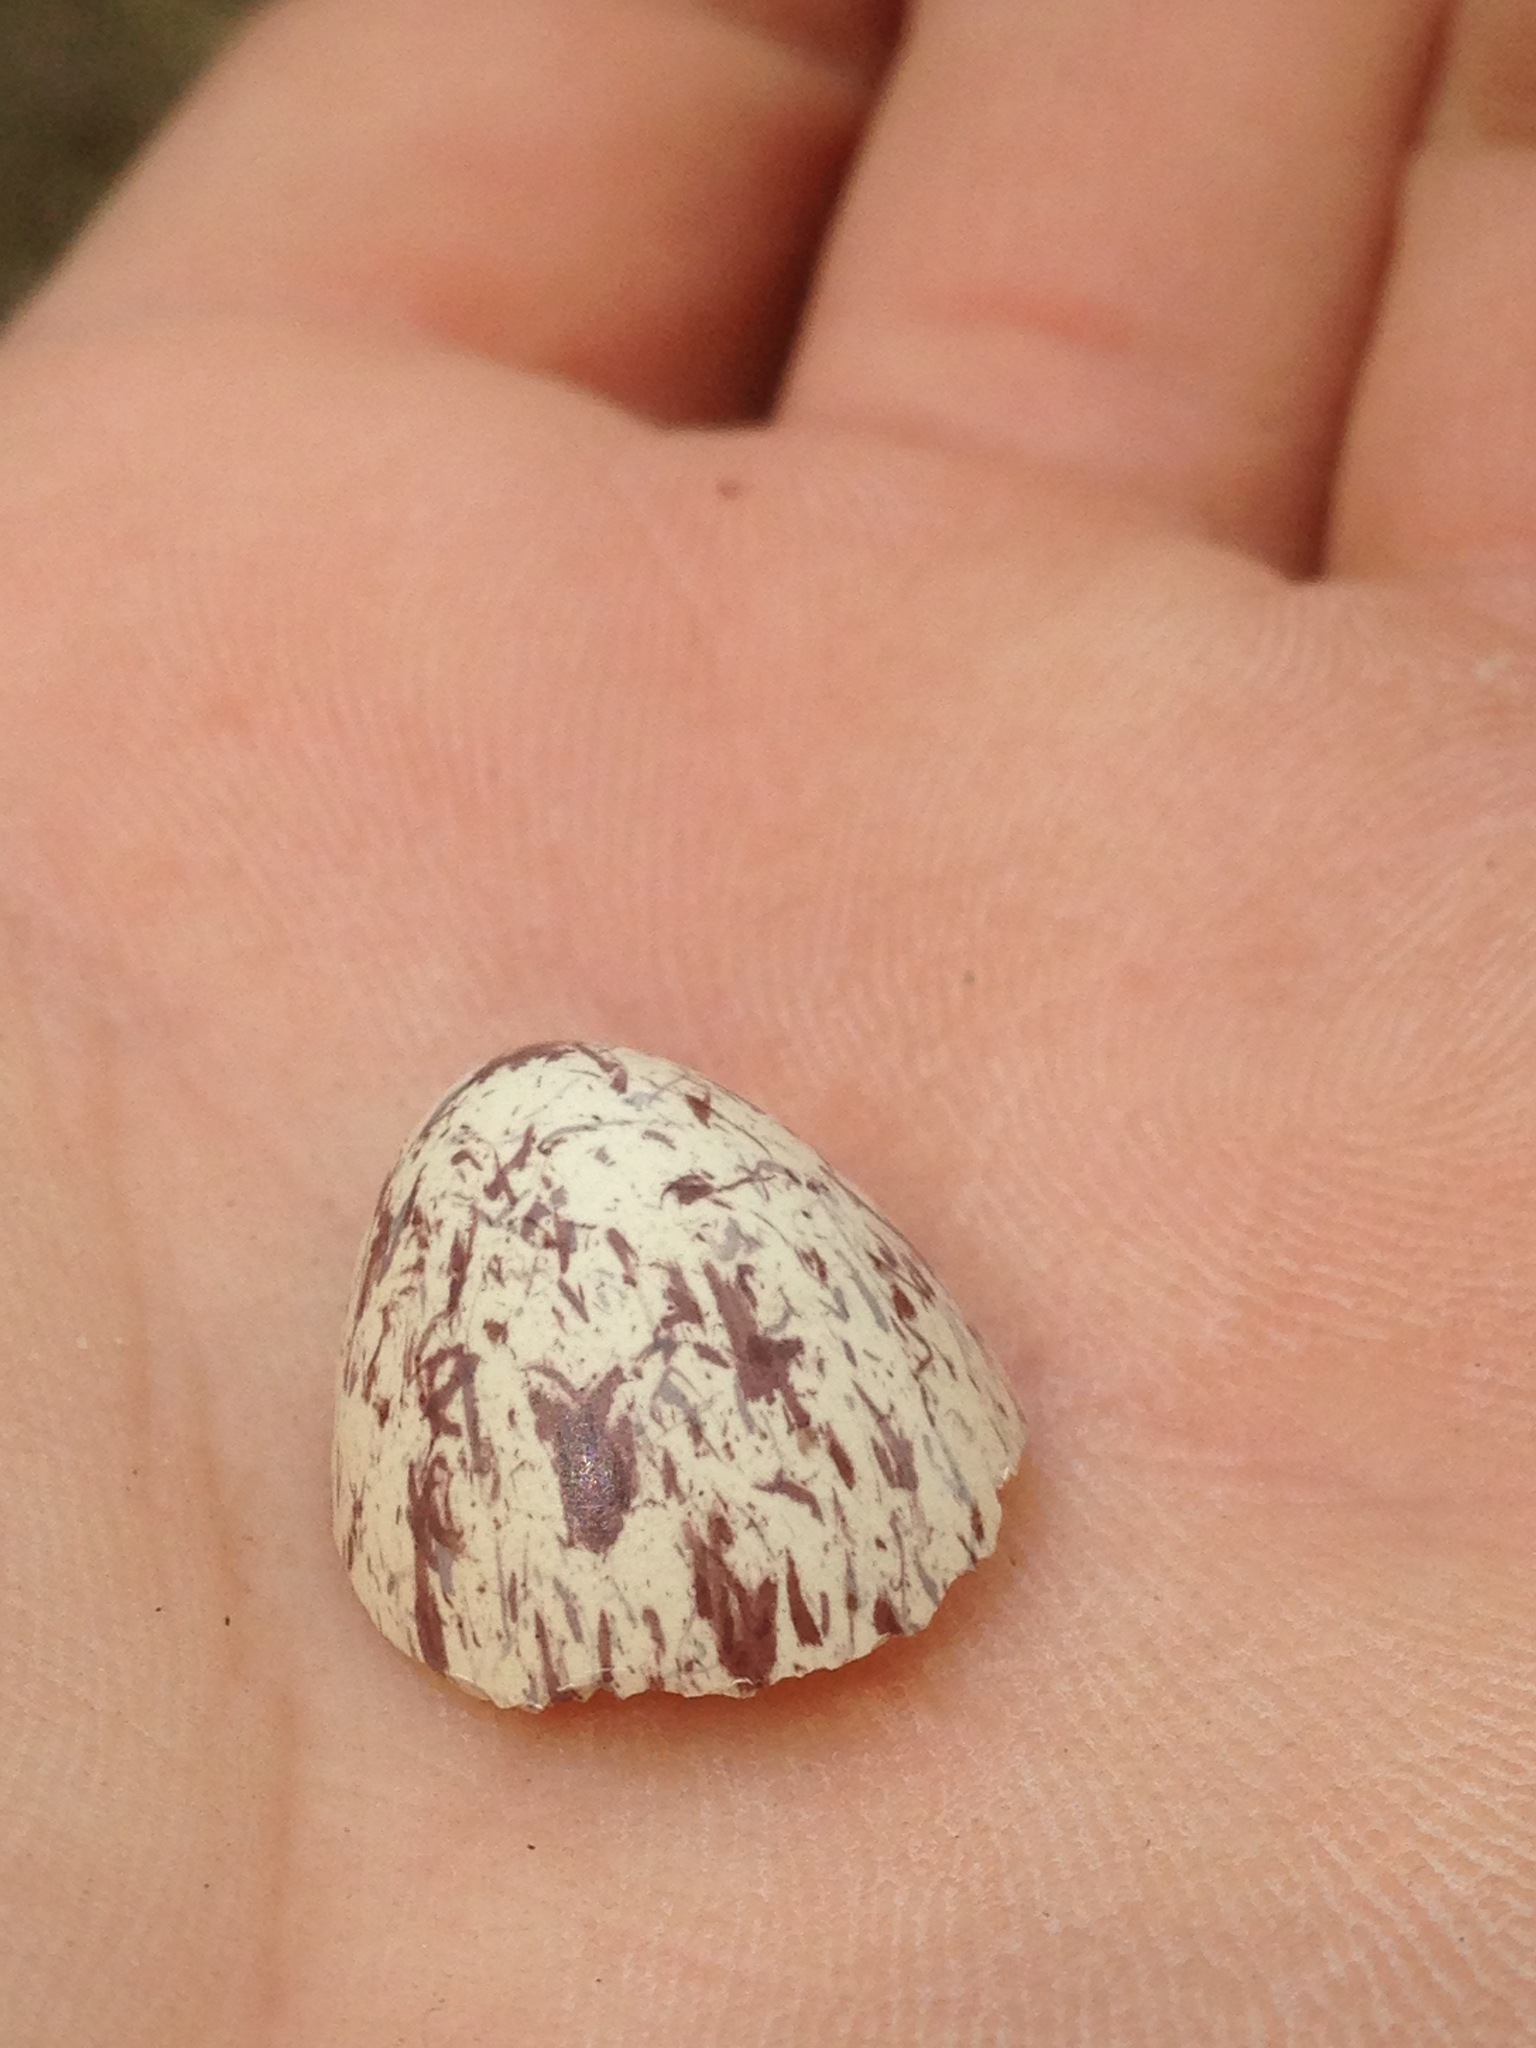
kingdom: Animalia
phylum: Chordata
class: Aves
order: Passeriformes
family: Tyrannidae
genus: Myiarchus
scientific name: Myiarchus cinerascens
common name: Ash-throated flycatcher
